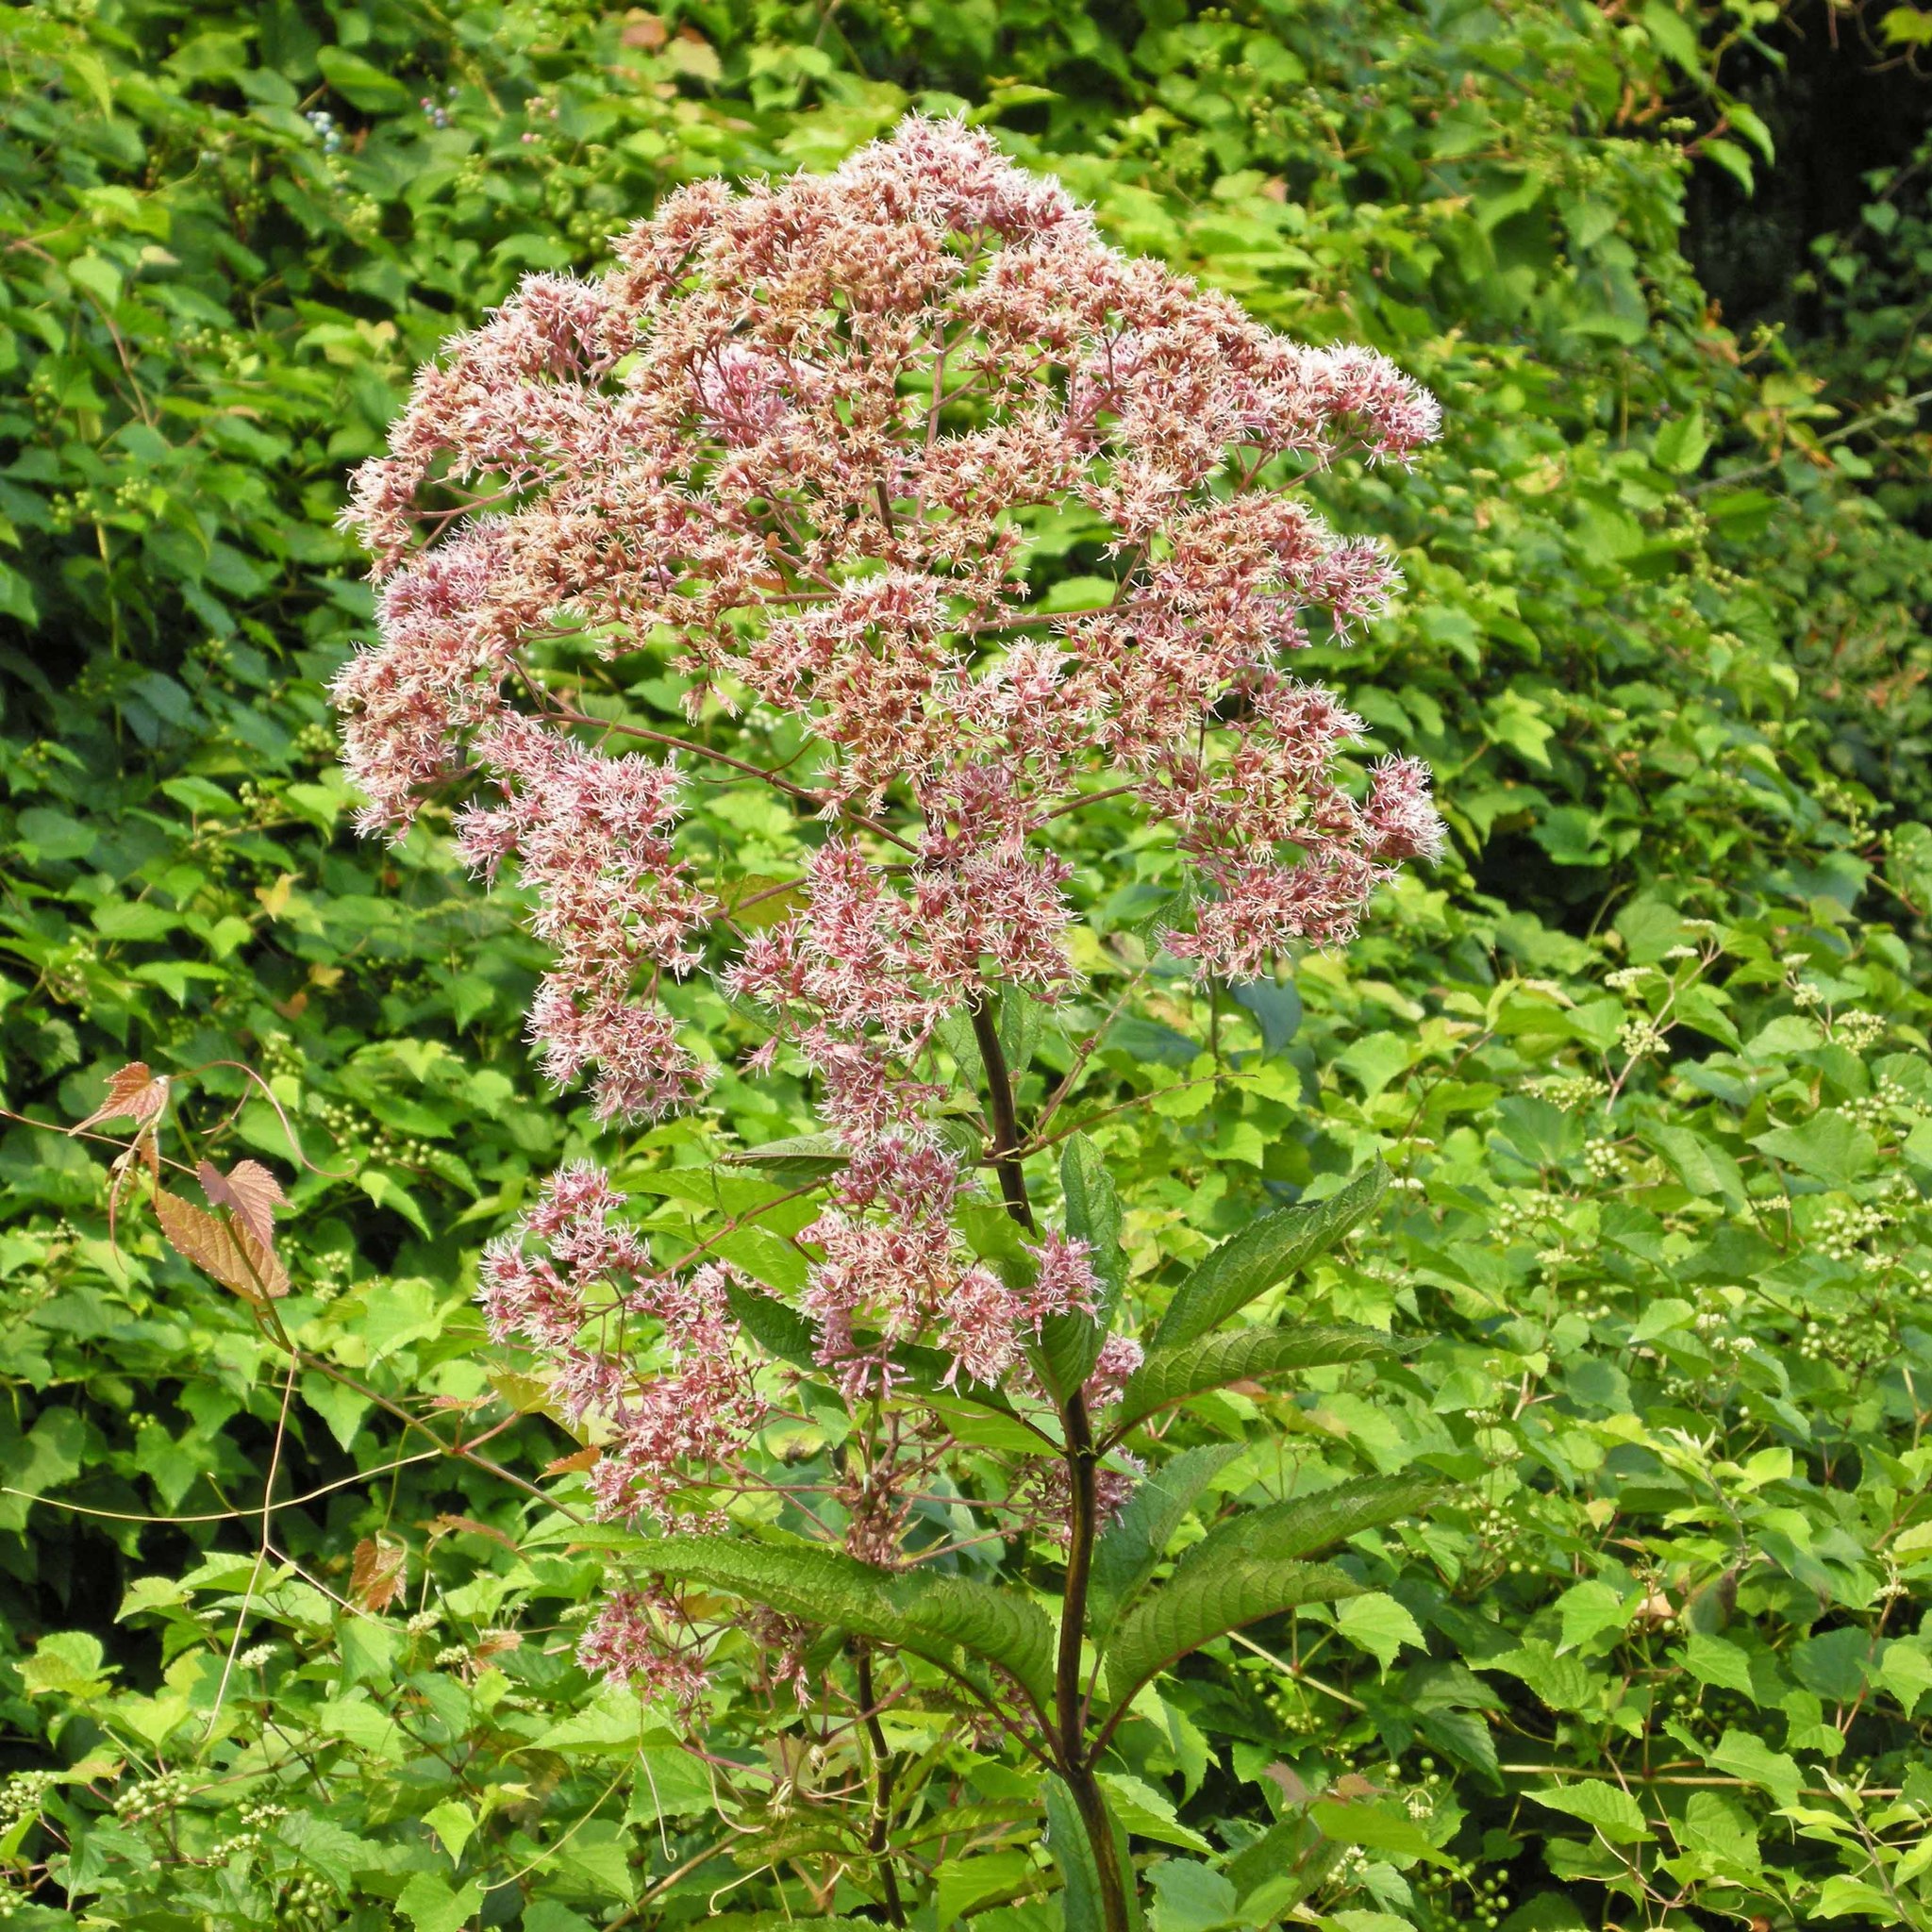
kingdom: Plantae
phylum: Tracheophyta
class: Magnoliopsida
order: Asterales
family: Asteraceae
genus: Eutrochium
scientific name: Eutrochium maculatum
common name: Spotted joe pye weed
